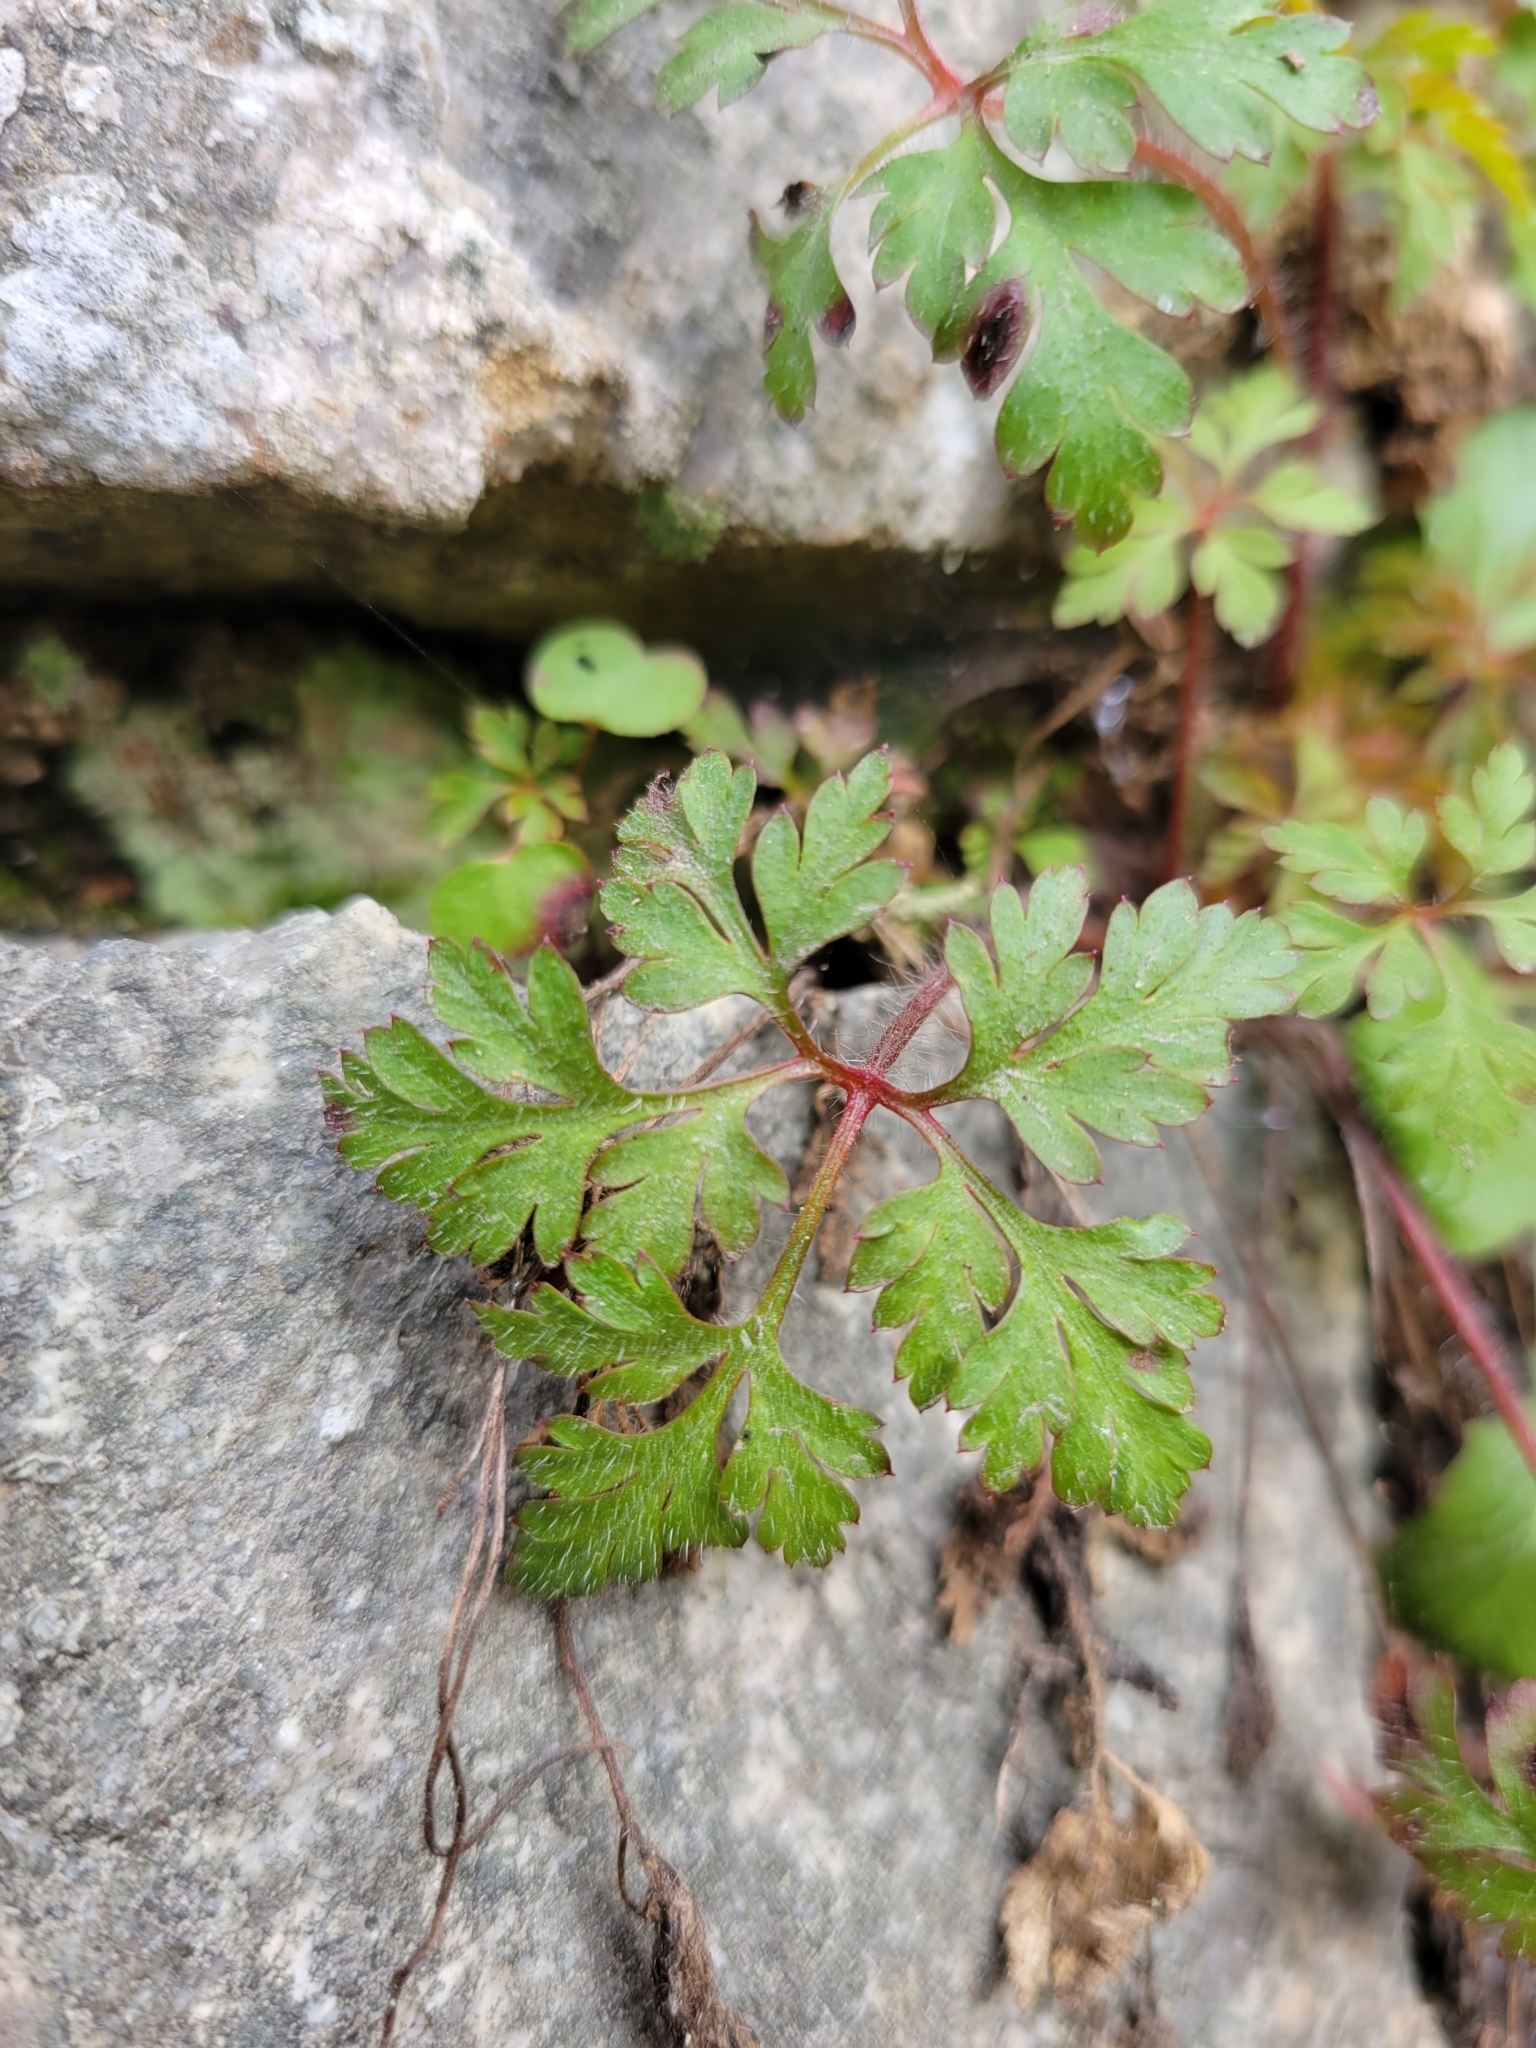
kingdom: Plantae
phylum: Tracheophyta
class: Magnoliopsida
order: Geraniales
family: Geraniaceae
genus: Geranium
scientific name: Geranium robertianum
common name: Herb-robert
